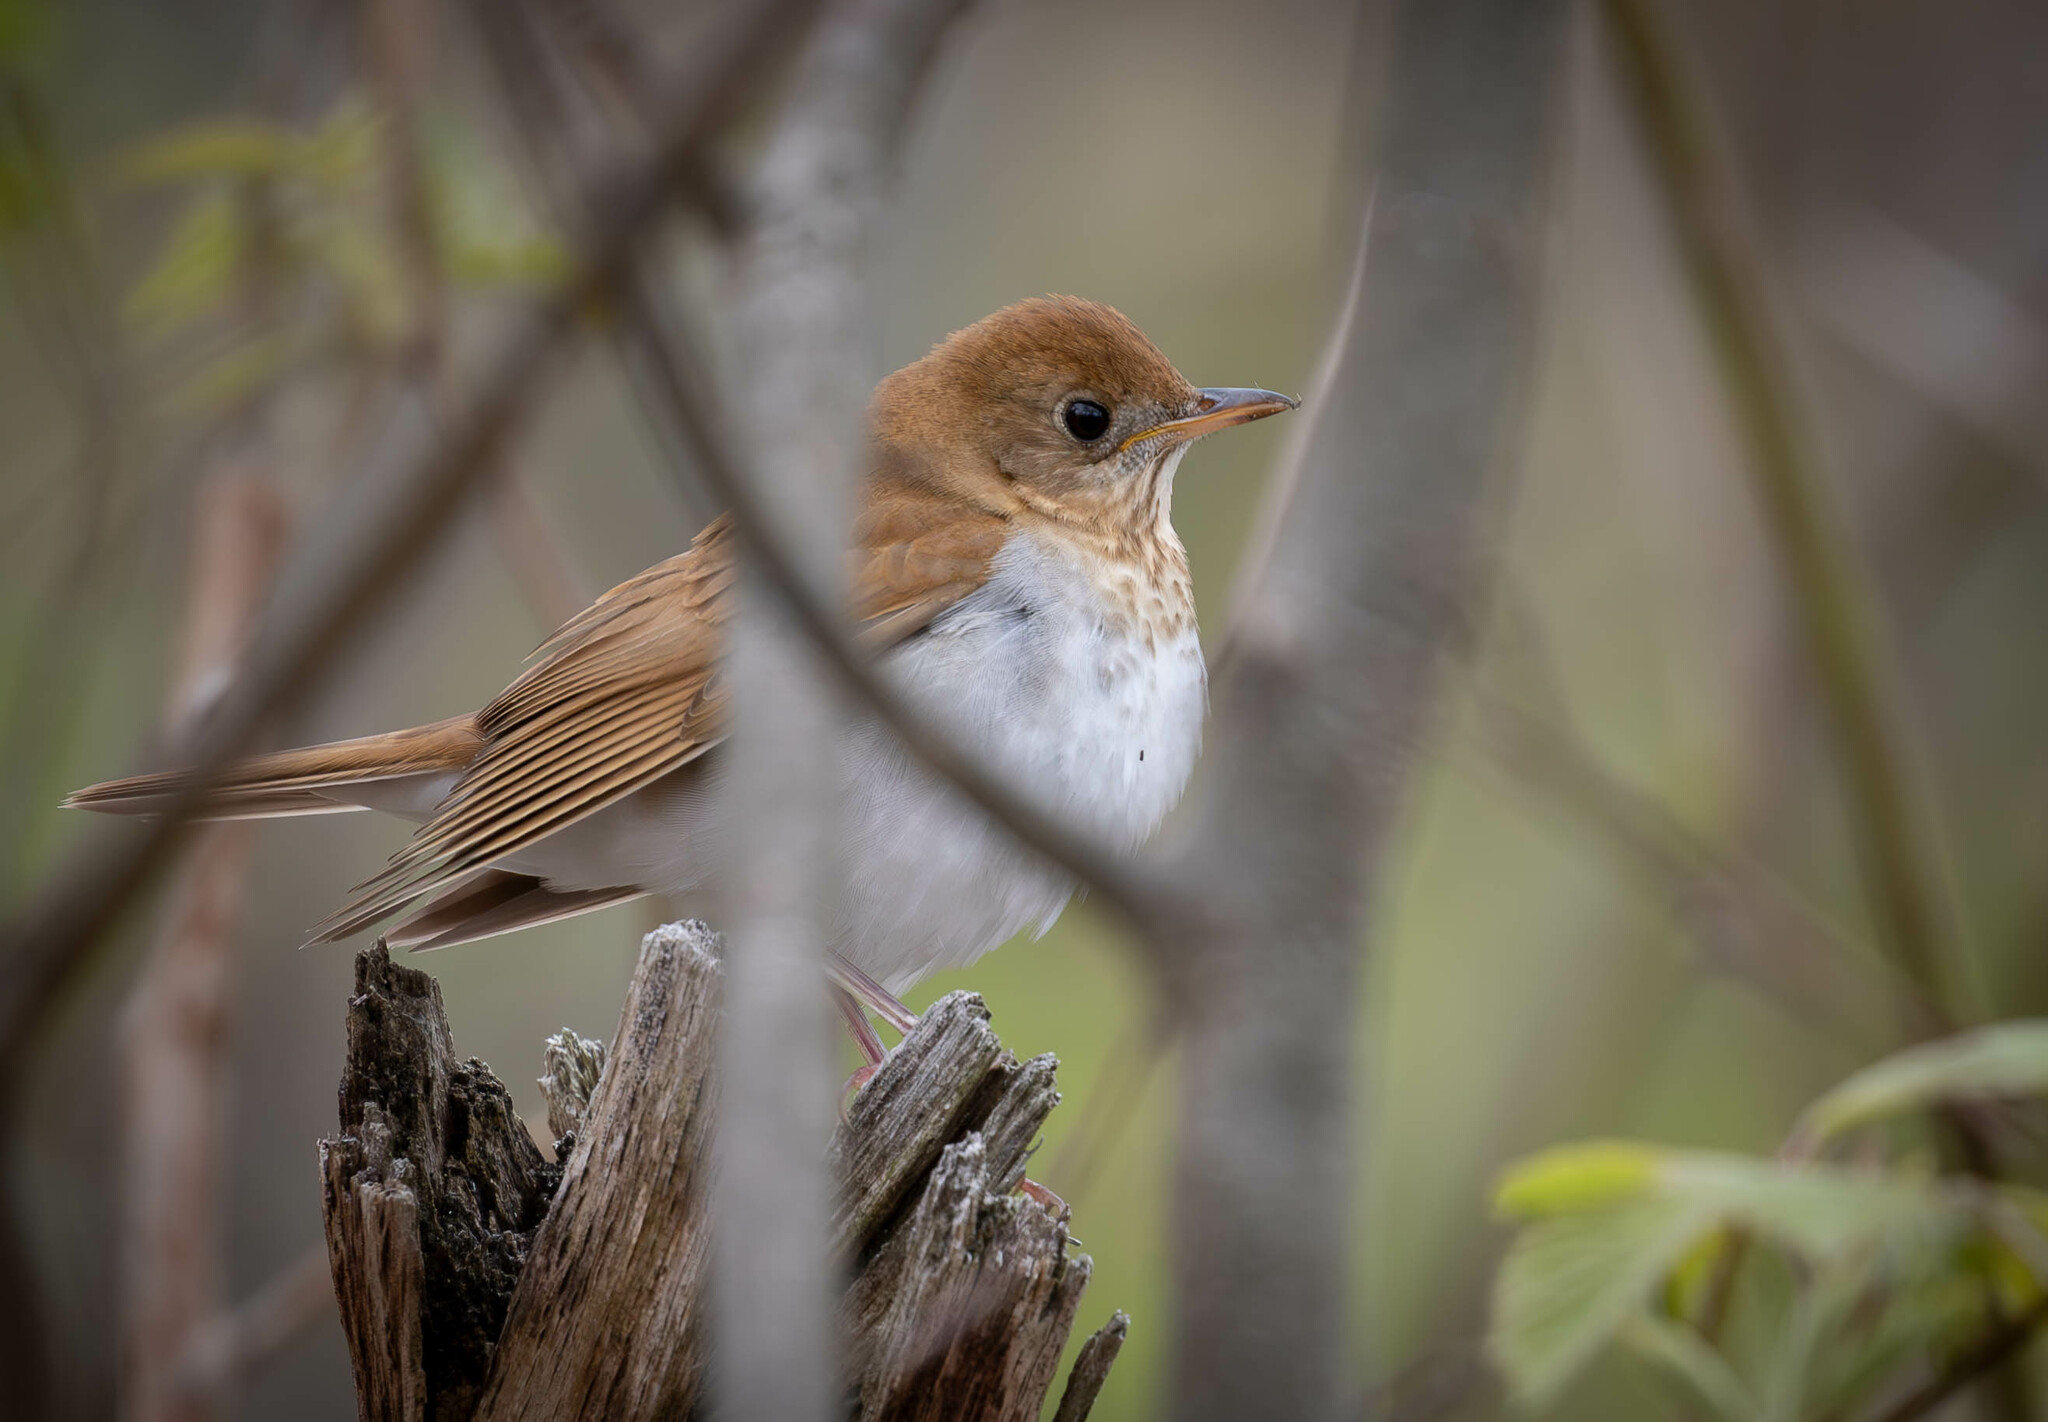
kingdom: Animalia
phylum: Chordata
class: Aves
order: Passeriformes
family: Turdidae
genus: Catharus
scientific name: Catharus fuscescens
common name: Veery
